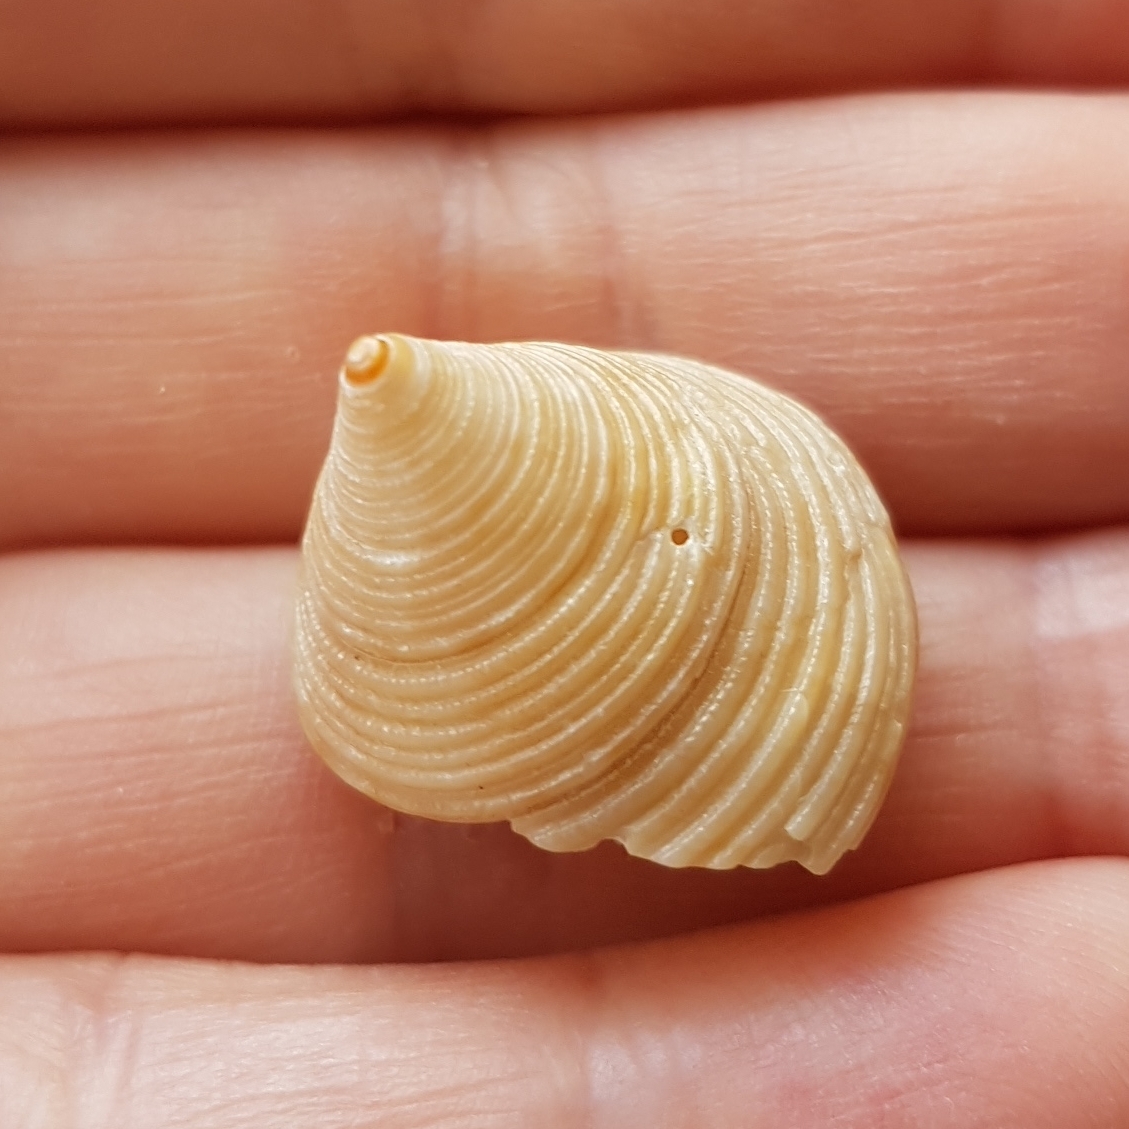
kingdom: Animalia
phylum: Mollusca
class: Gastropoda
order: Trochida
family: Calliostomatidae
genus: Calliostoma
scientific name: Calliostoma zizyphinum
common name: Painted top shell
